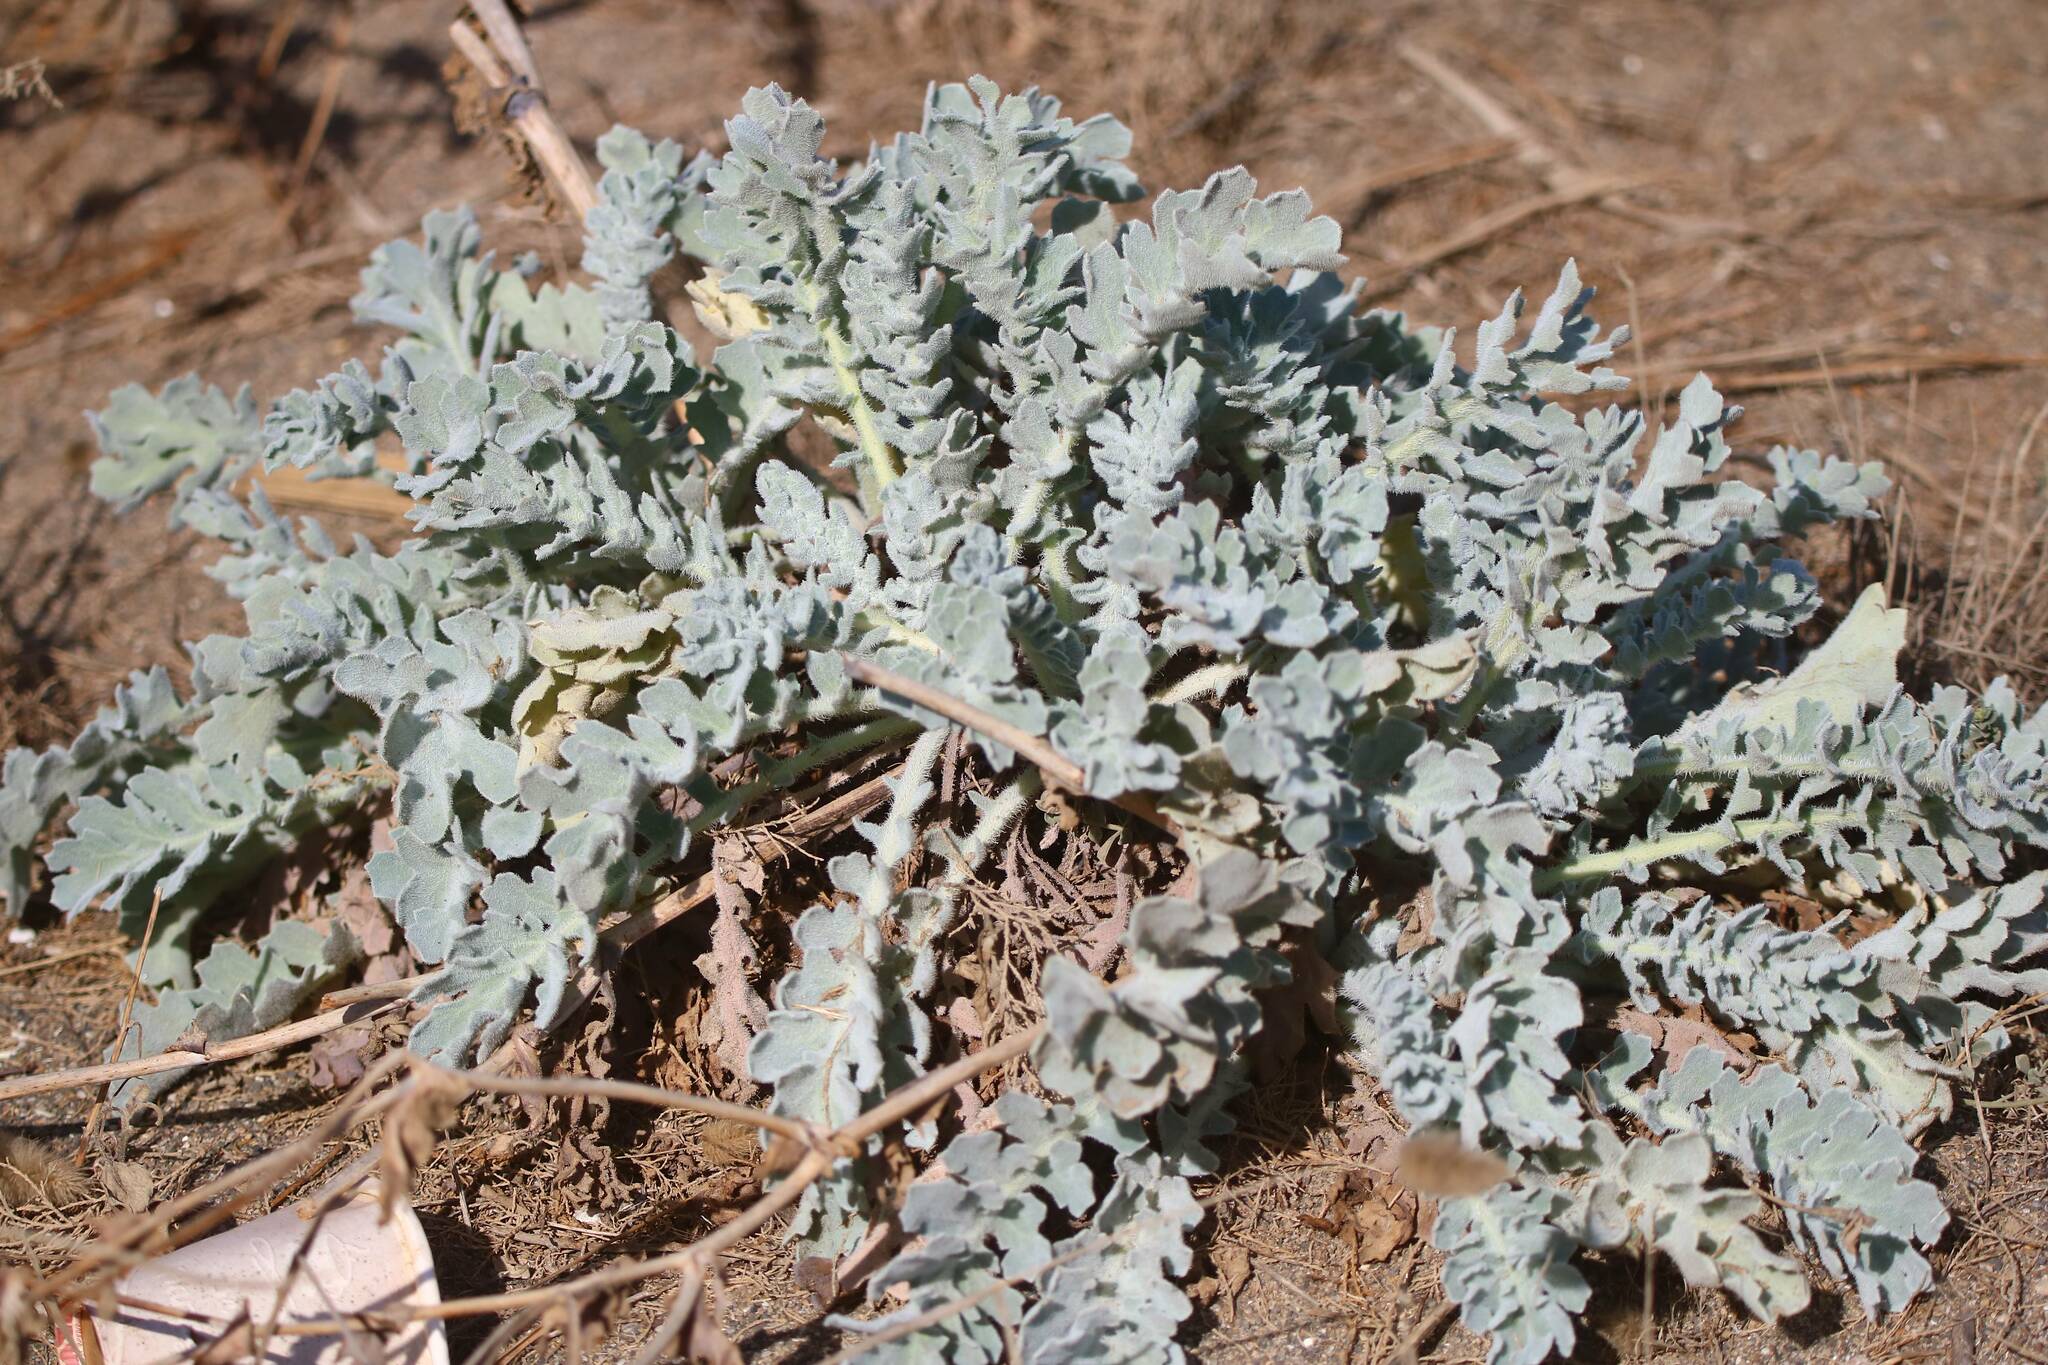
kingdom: Plantae
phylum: Tracheophyta
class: Magnoliopsida
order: Ranunculales
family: Papaveraceae
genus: Glaucium
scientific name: Glaucium flavum
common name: Yellow horned-poppy
